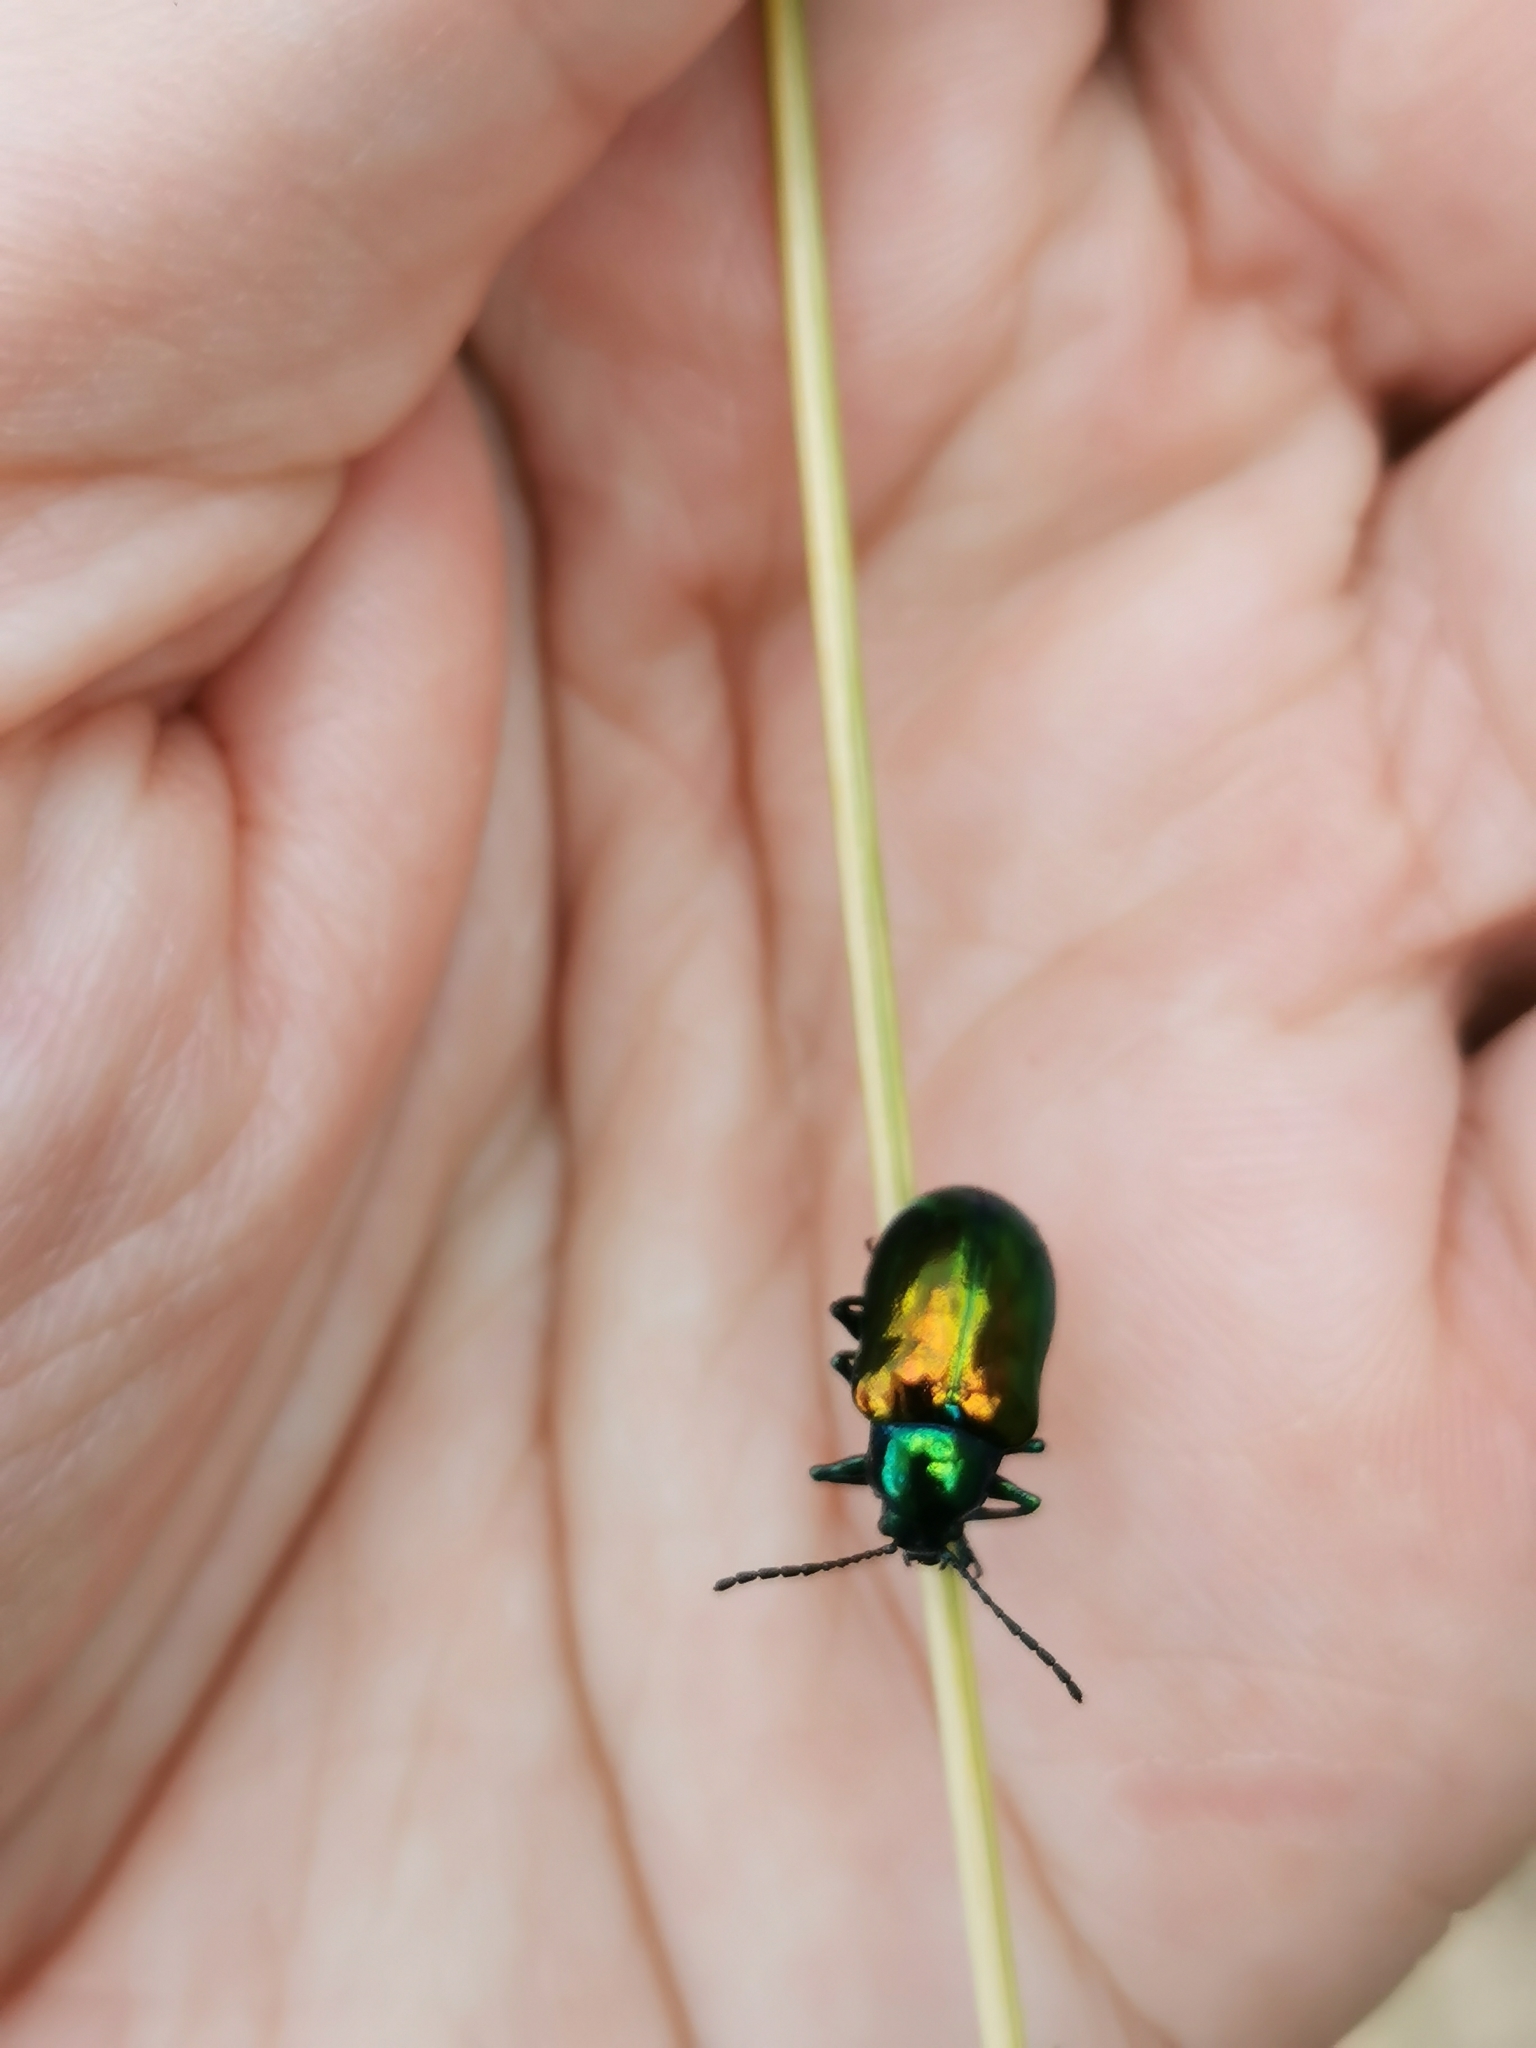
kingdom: Animalia
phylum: Arthropoda
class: Insecta
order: Coleoptera
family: Chrysomelidae
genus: Chrysochus
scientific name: Chrysochus auratus
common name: Dogbane leaf beetle
